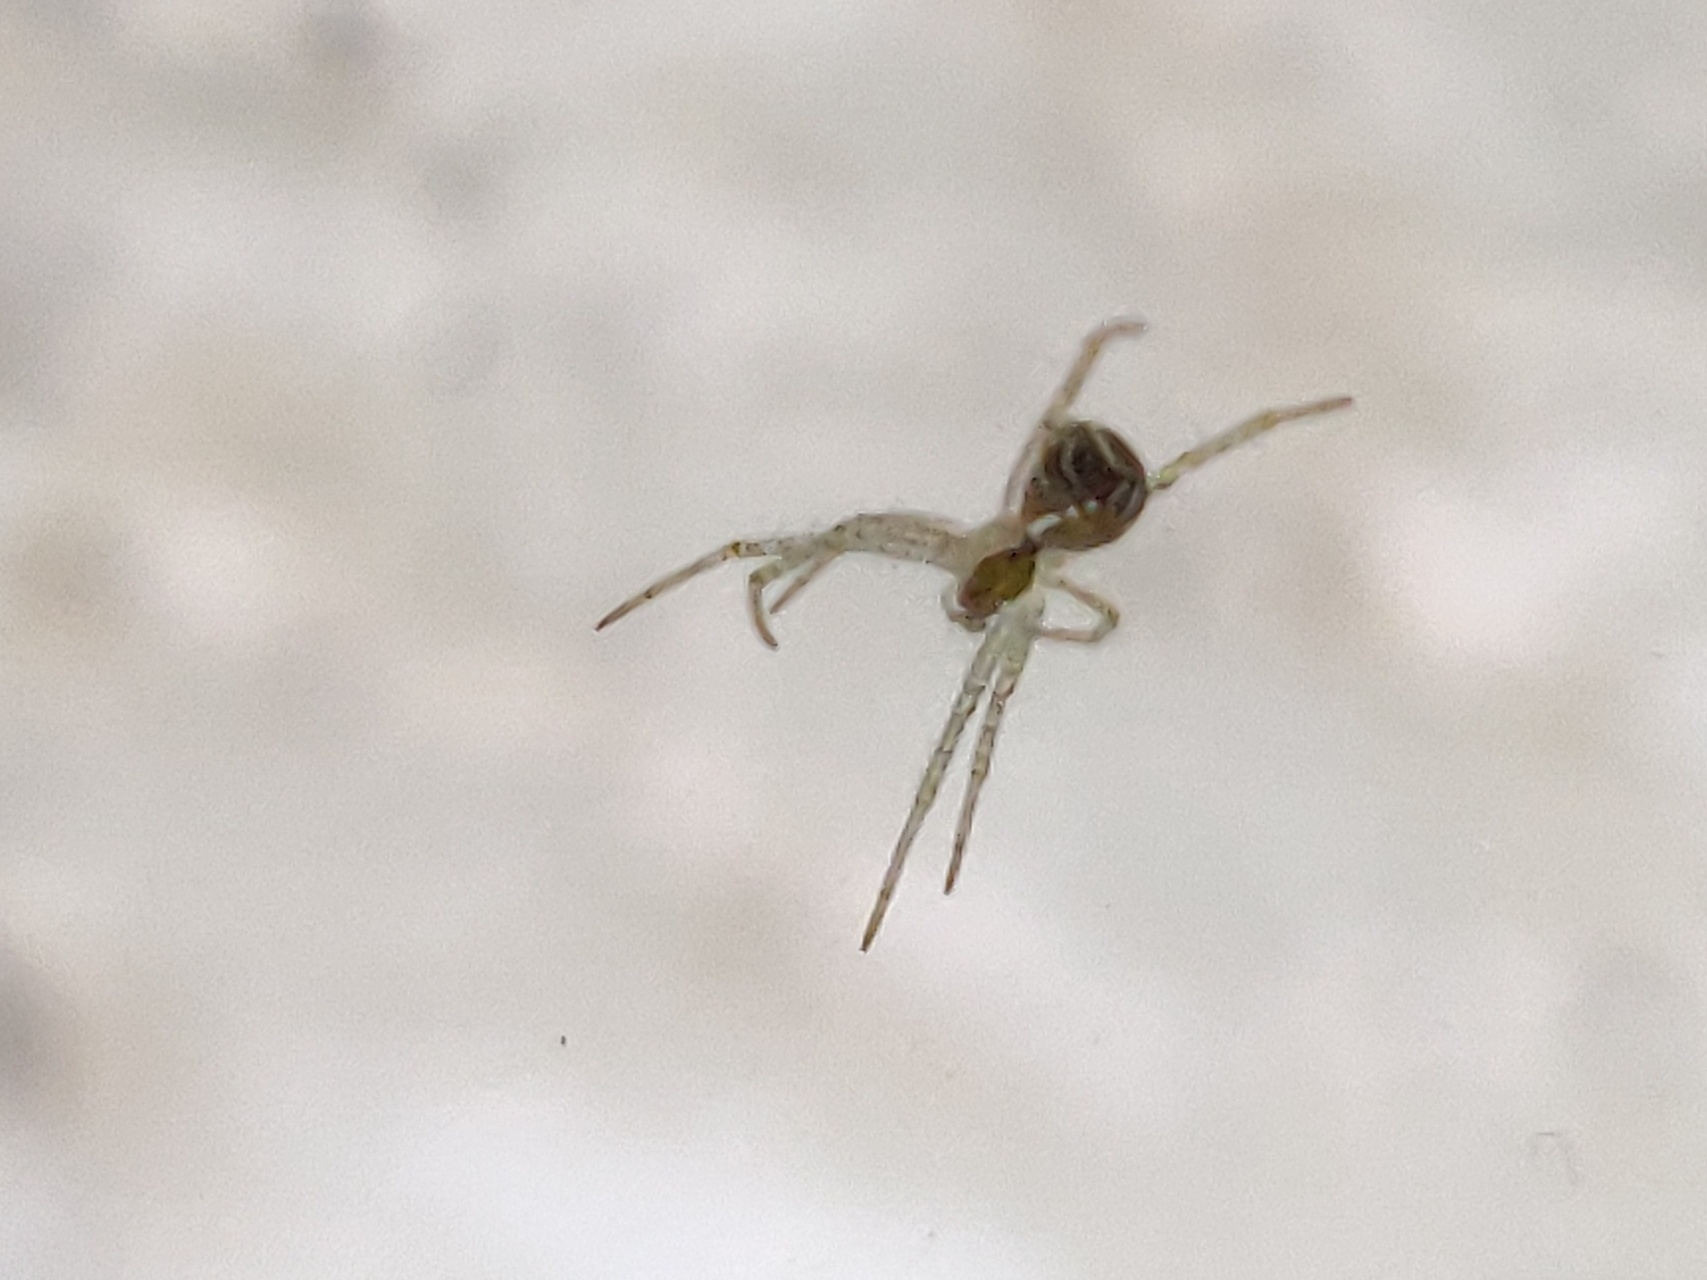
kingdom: Animalia
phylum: Arthropoda
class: Arachnida
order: Araneae
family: Araneidae
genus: Cyrtophora
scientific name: Cyrtophora cicatrosa
